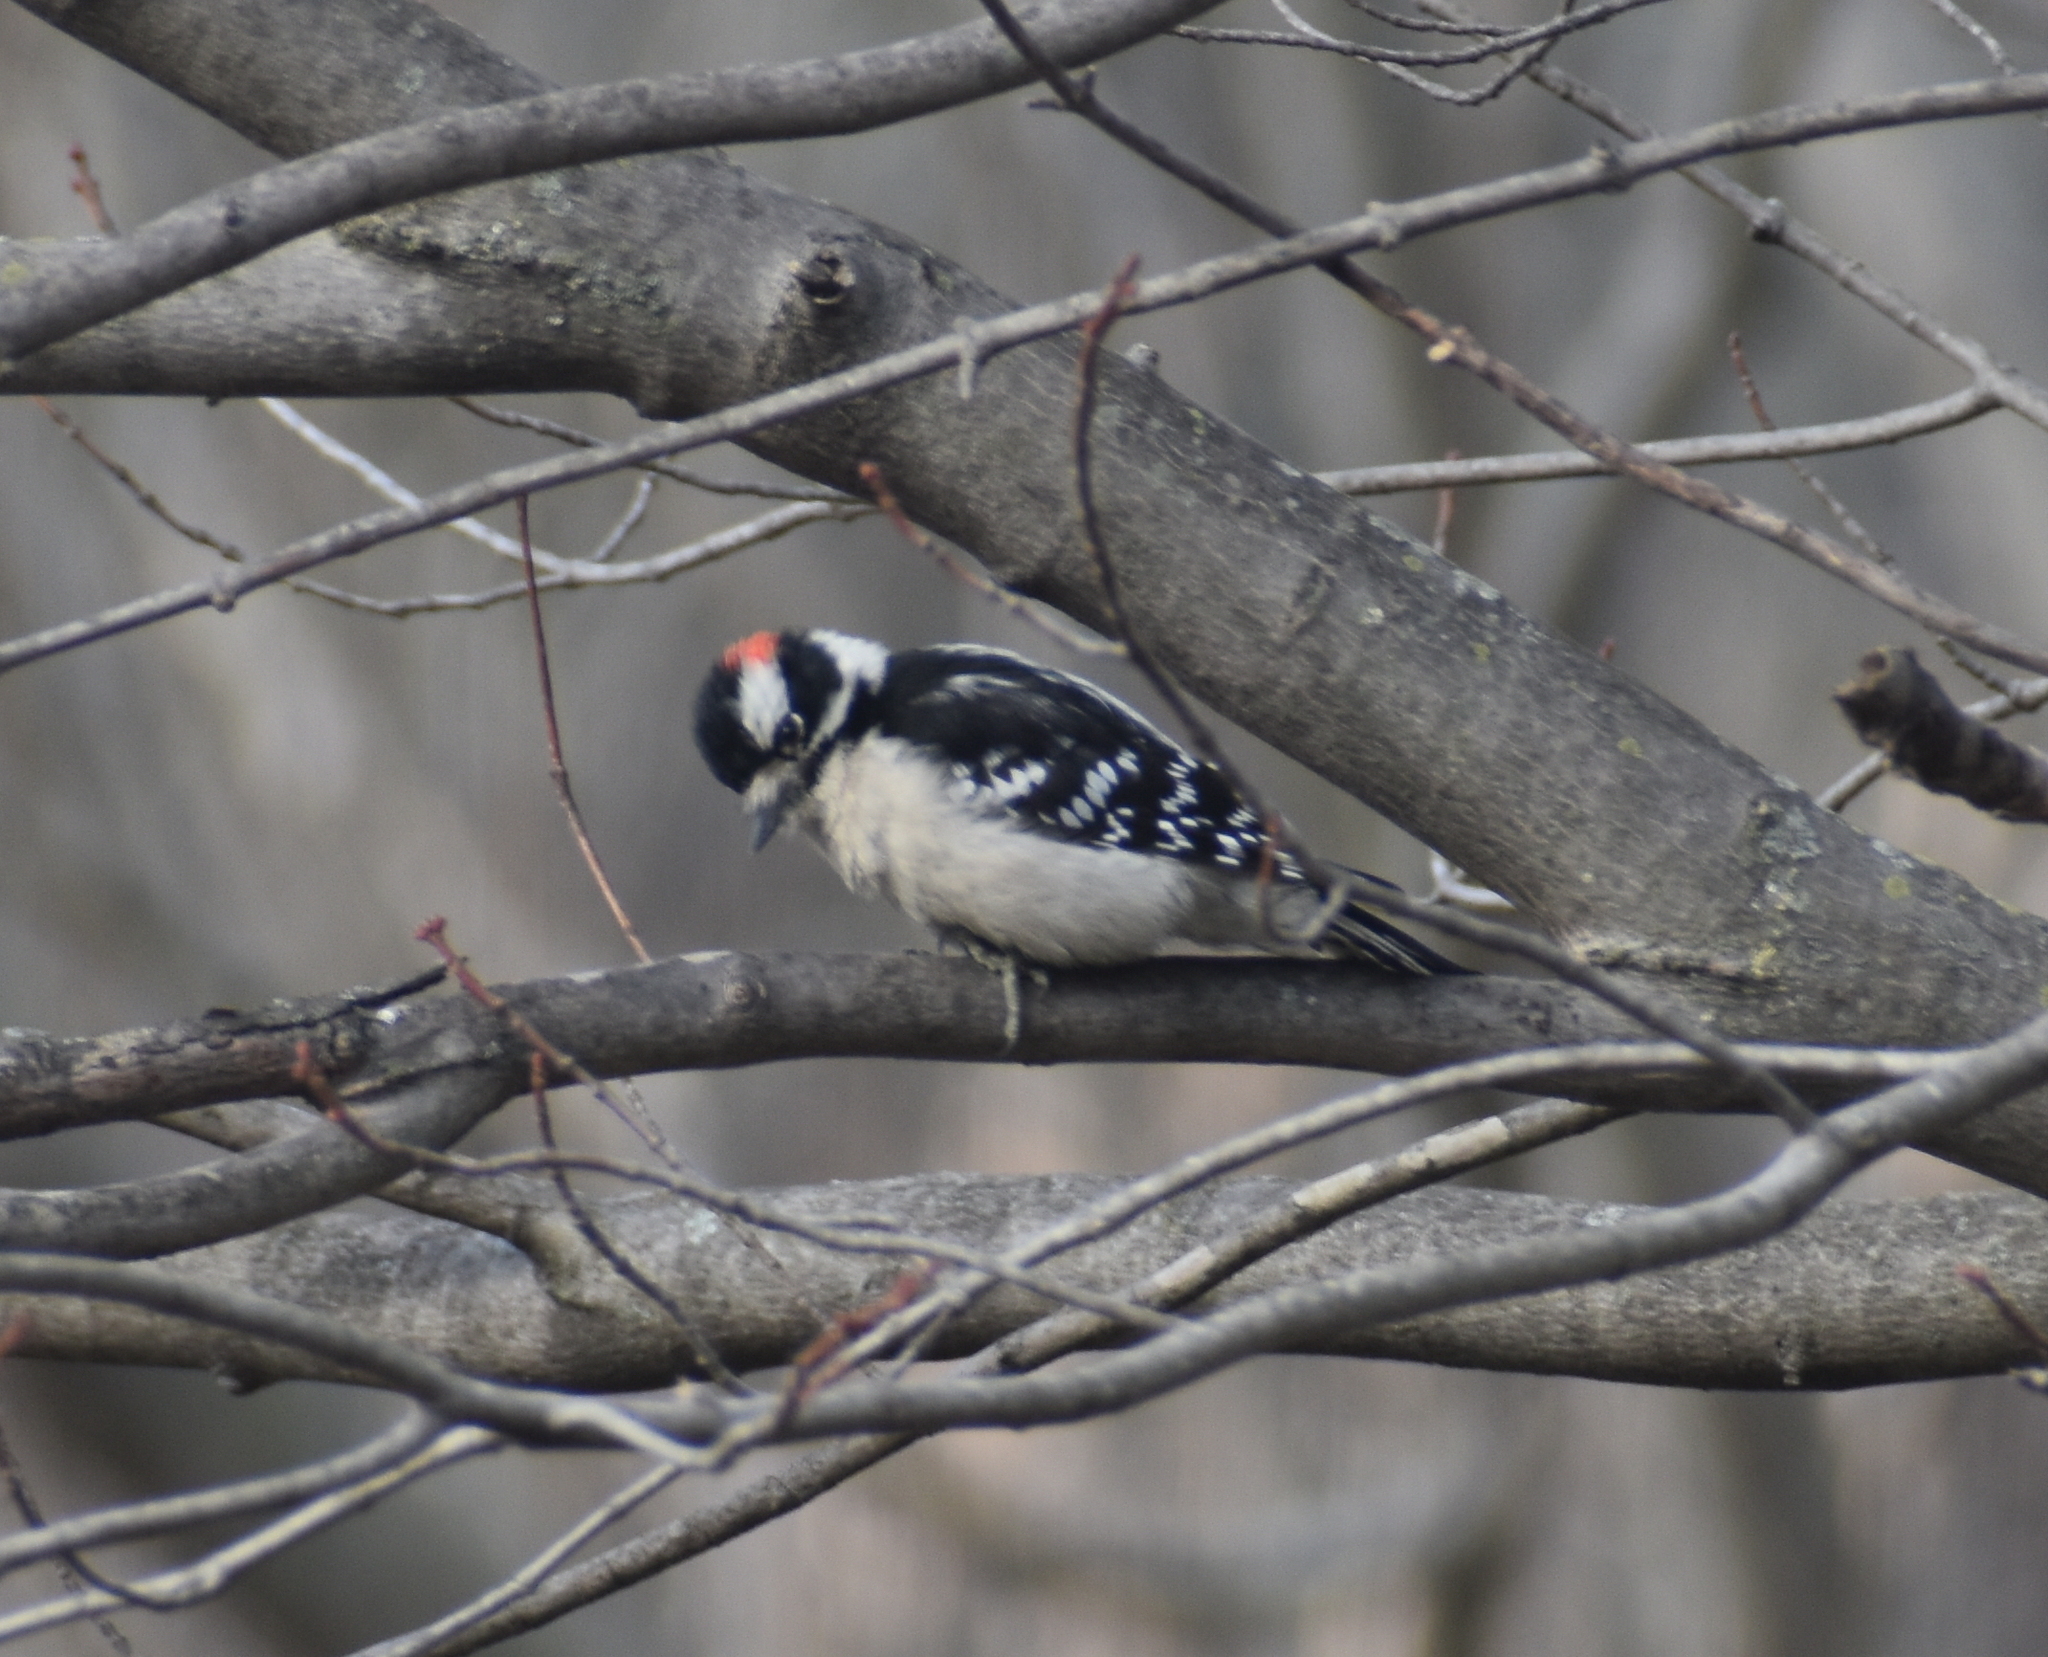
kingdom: Animalia
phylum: Chordata
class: Aves
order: Piciformes
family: Picidae
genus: Dryobates
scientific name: Dryobates pubescens
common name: Downy woodpecker
